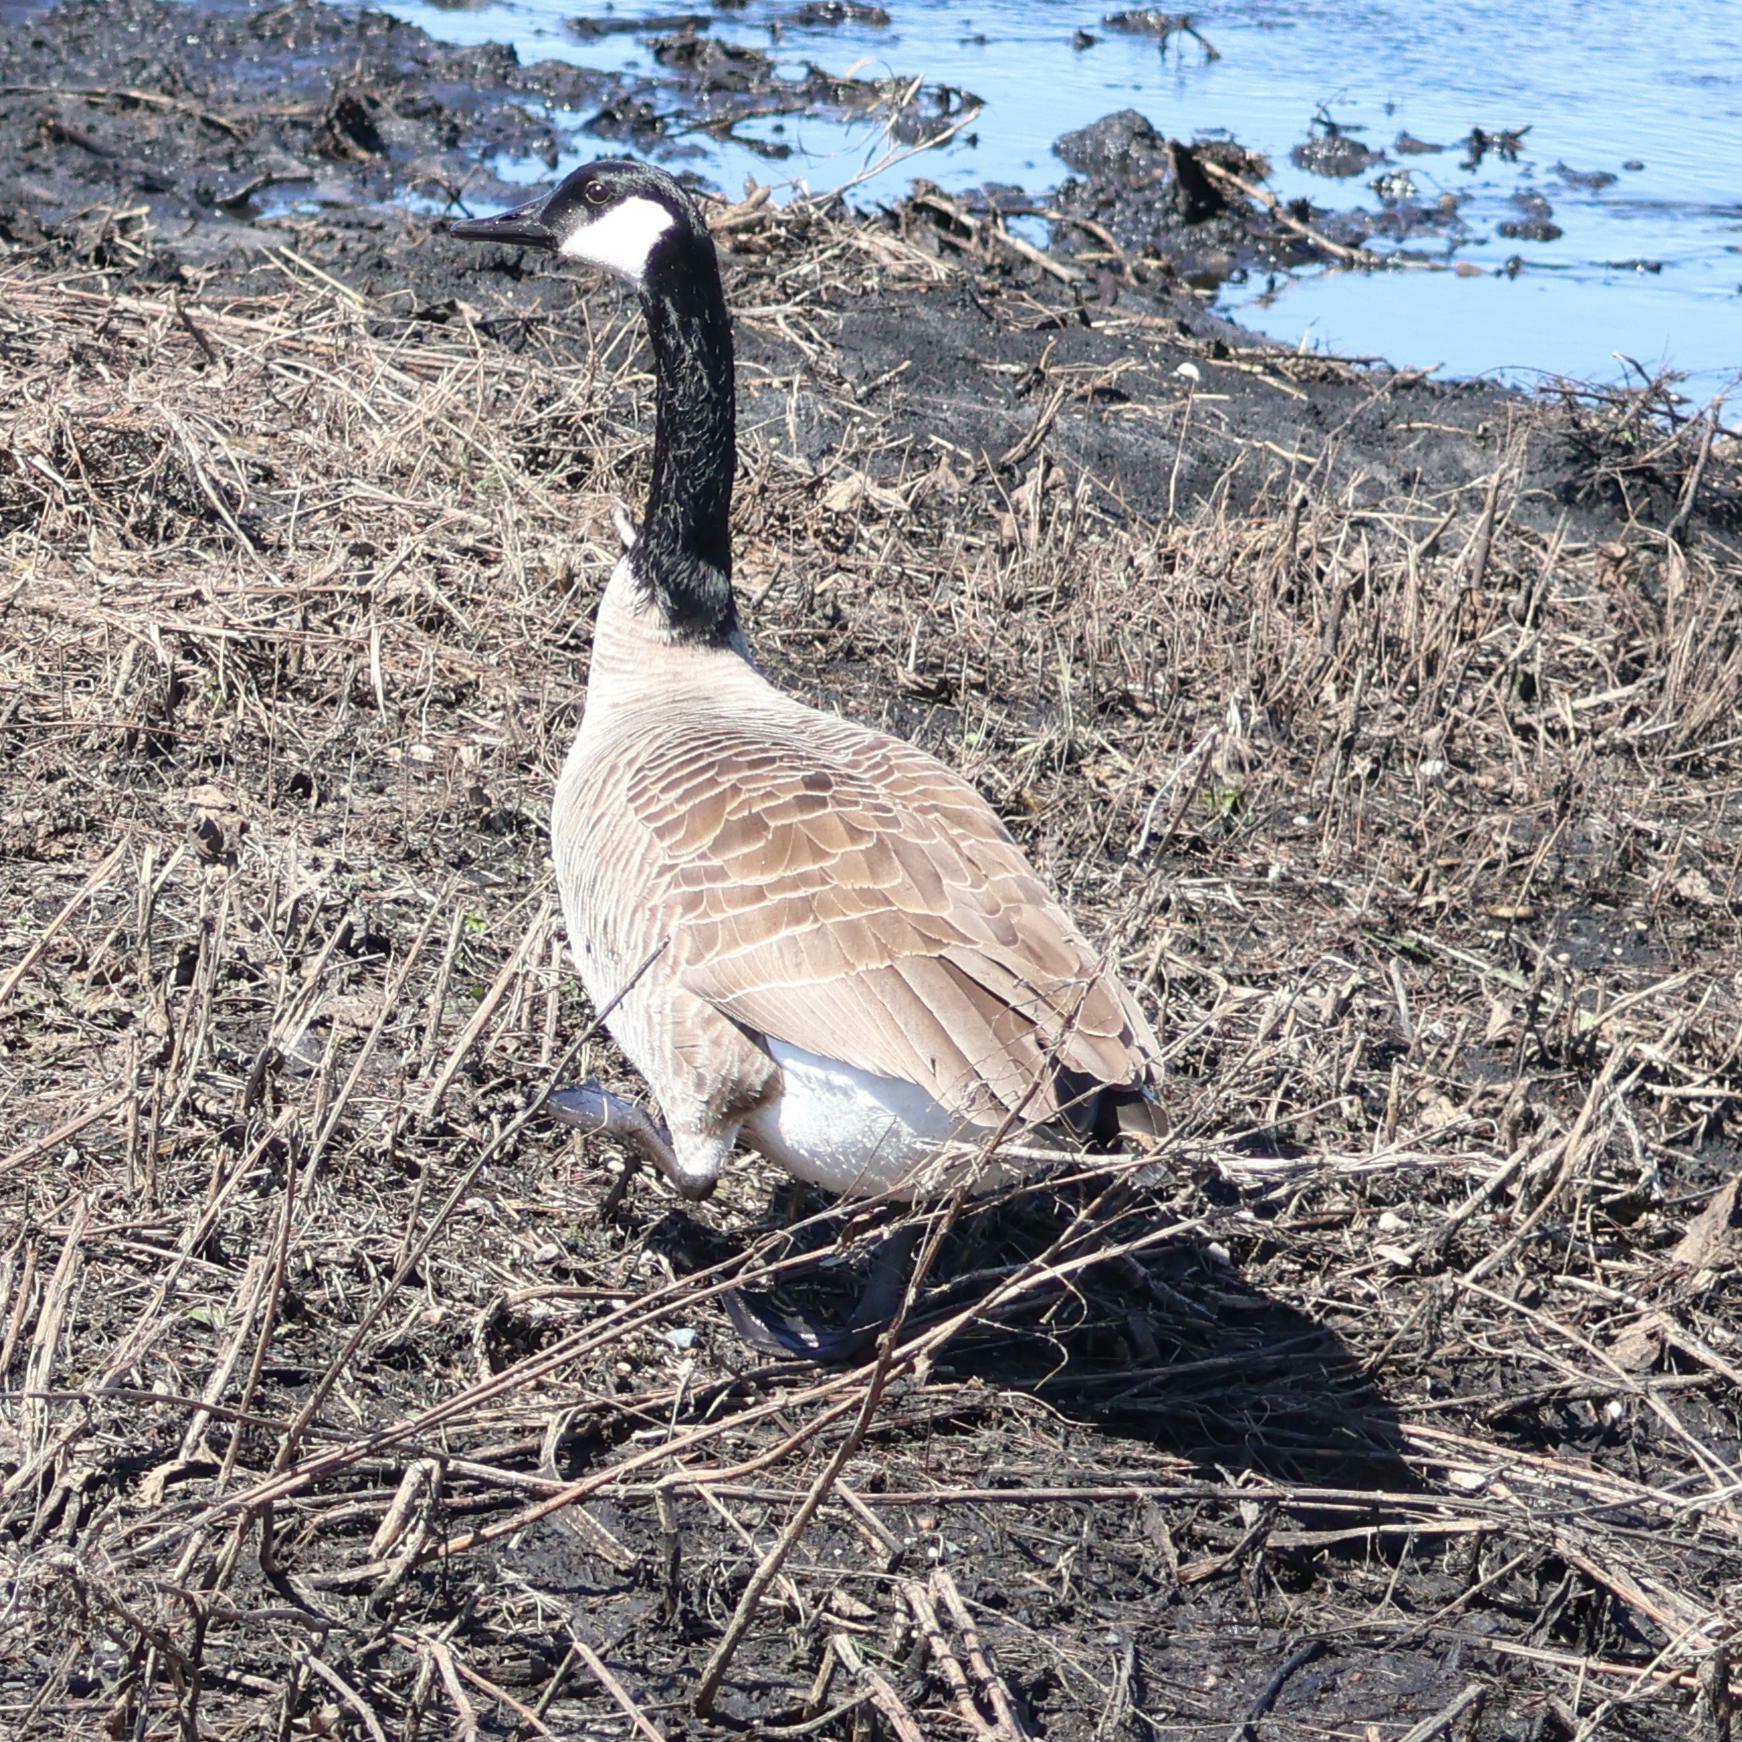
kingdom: Animalia
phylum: Chordata
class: Aves
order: Anseriformes
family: Anatidae
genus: Branta
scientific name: Branta canadensis
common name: Canada goose
